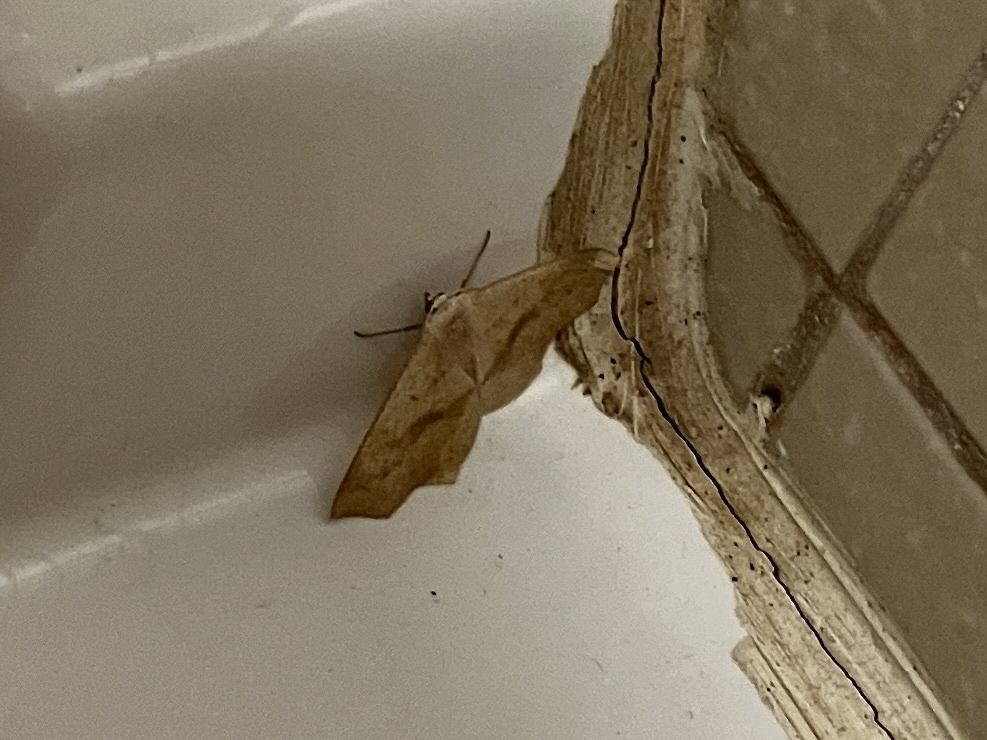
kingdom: Animalia
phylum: Arthropoda
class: Insecta
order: Lepidoptera
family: Geometridae
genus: Sabulodes
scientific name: Sabulodes aegrotata
